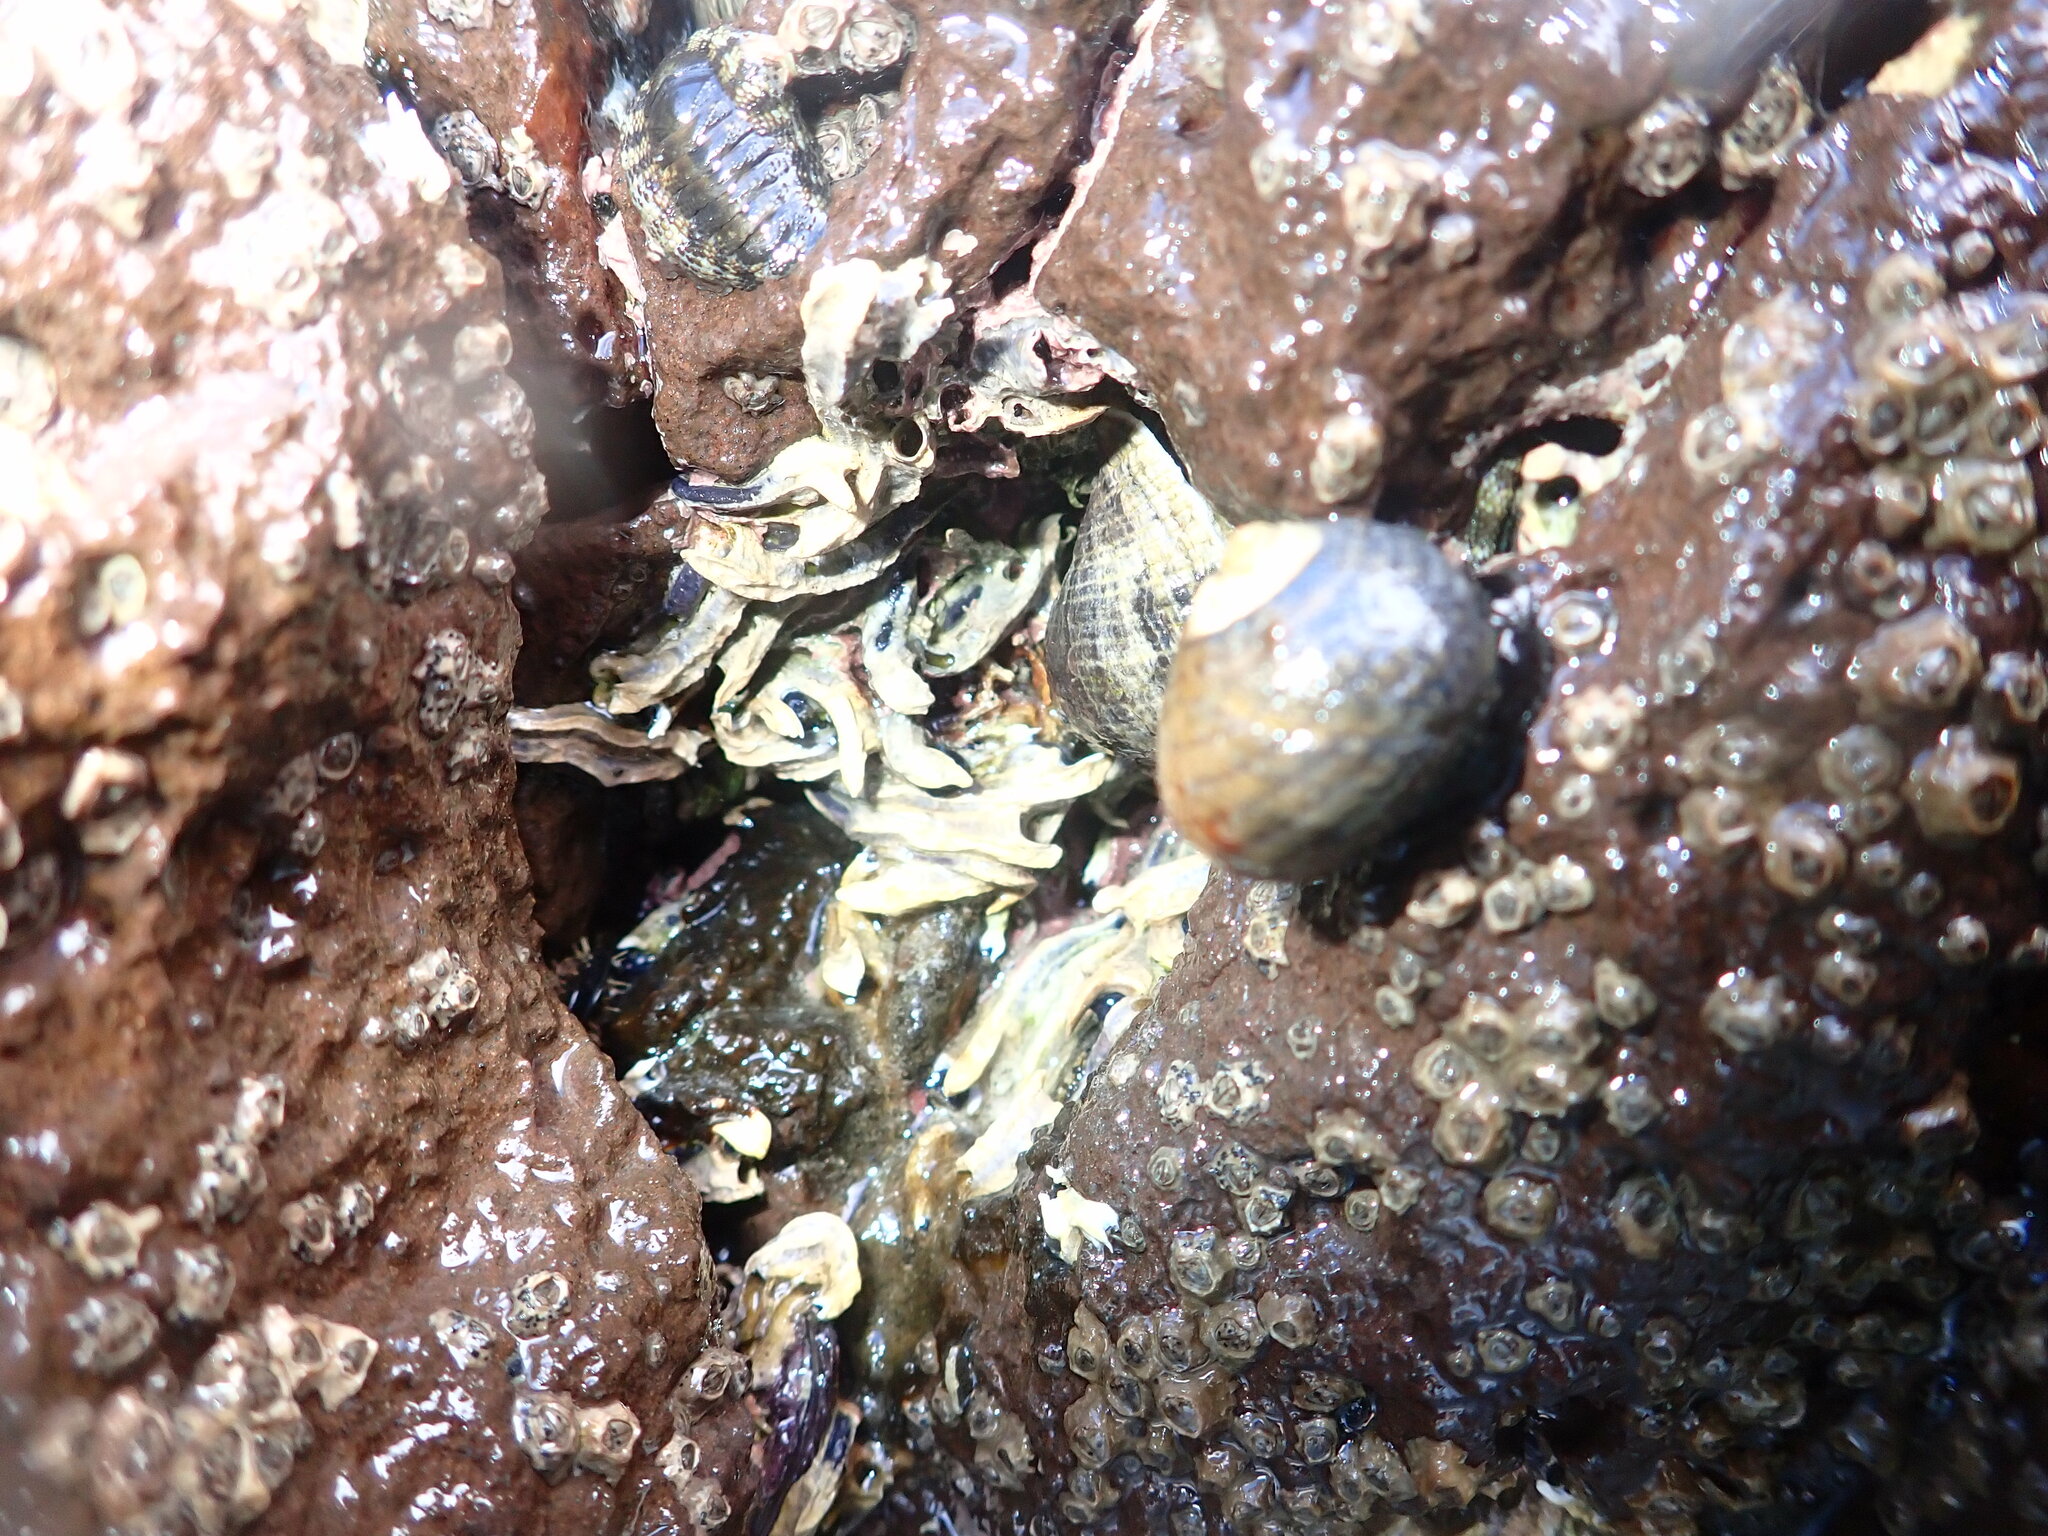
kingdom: Animalia
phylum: Mollusca
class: Gastropoda
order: Trochida
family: Trochidae
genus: Diloma
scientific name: Diloma aethiops
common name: Scorched monodont
